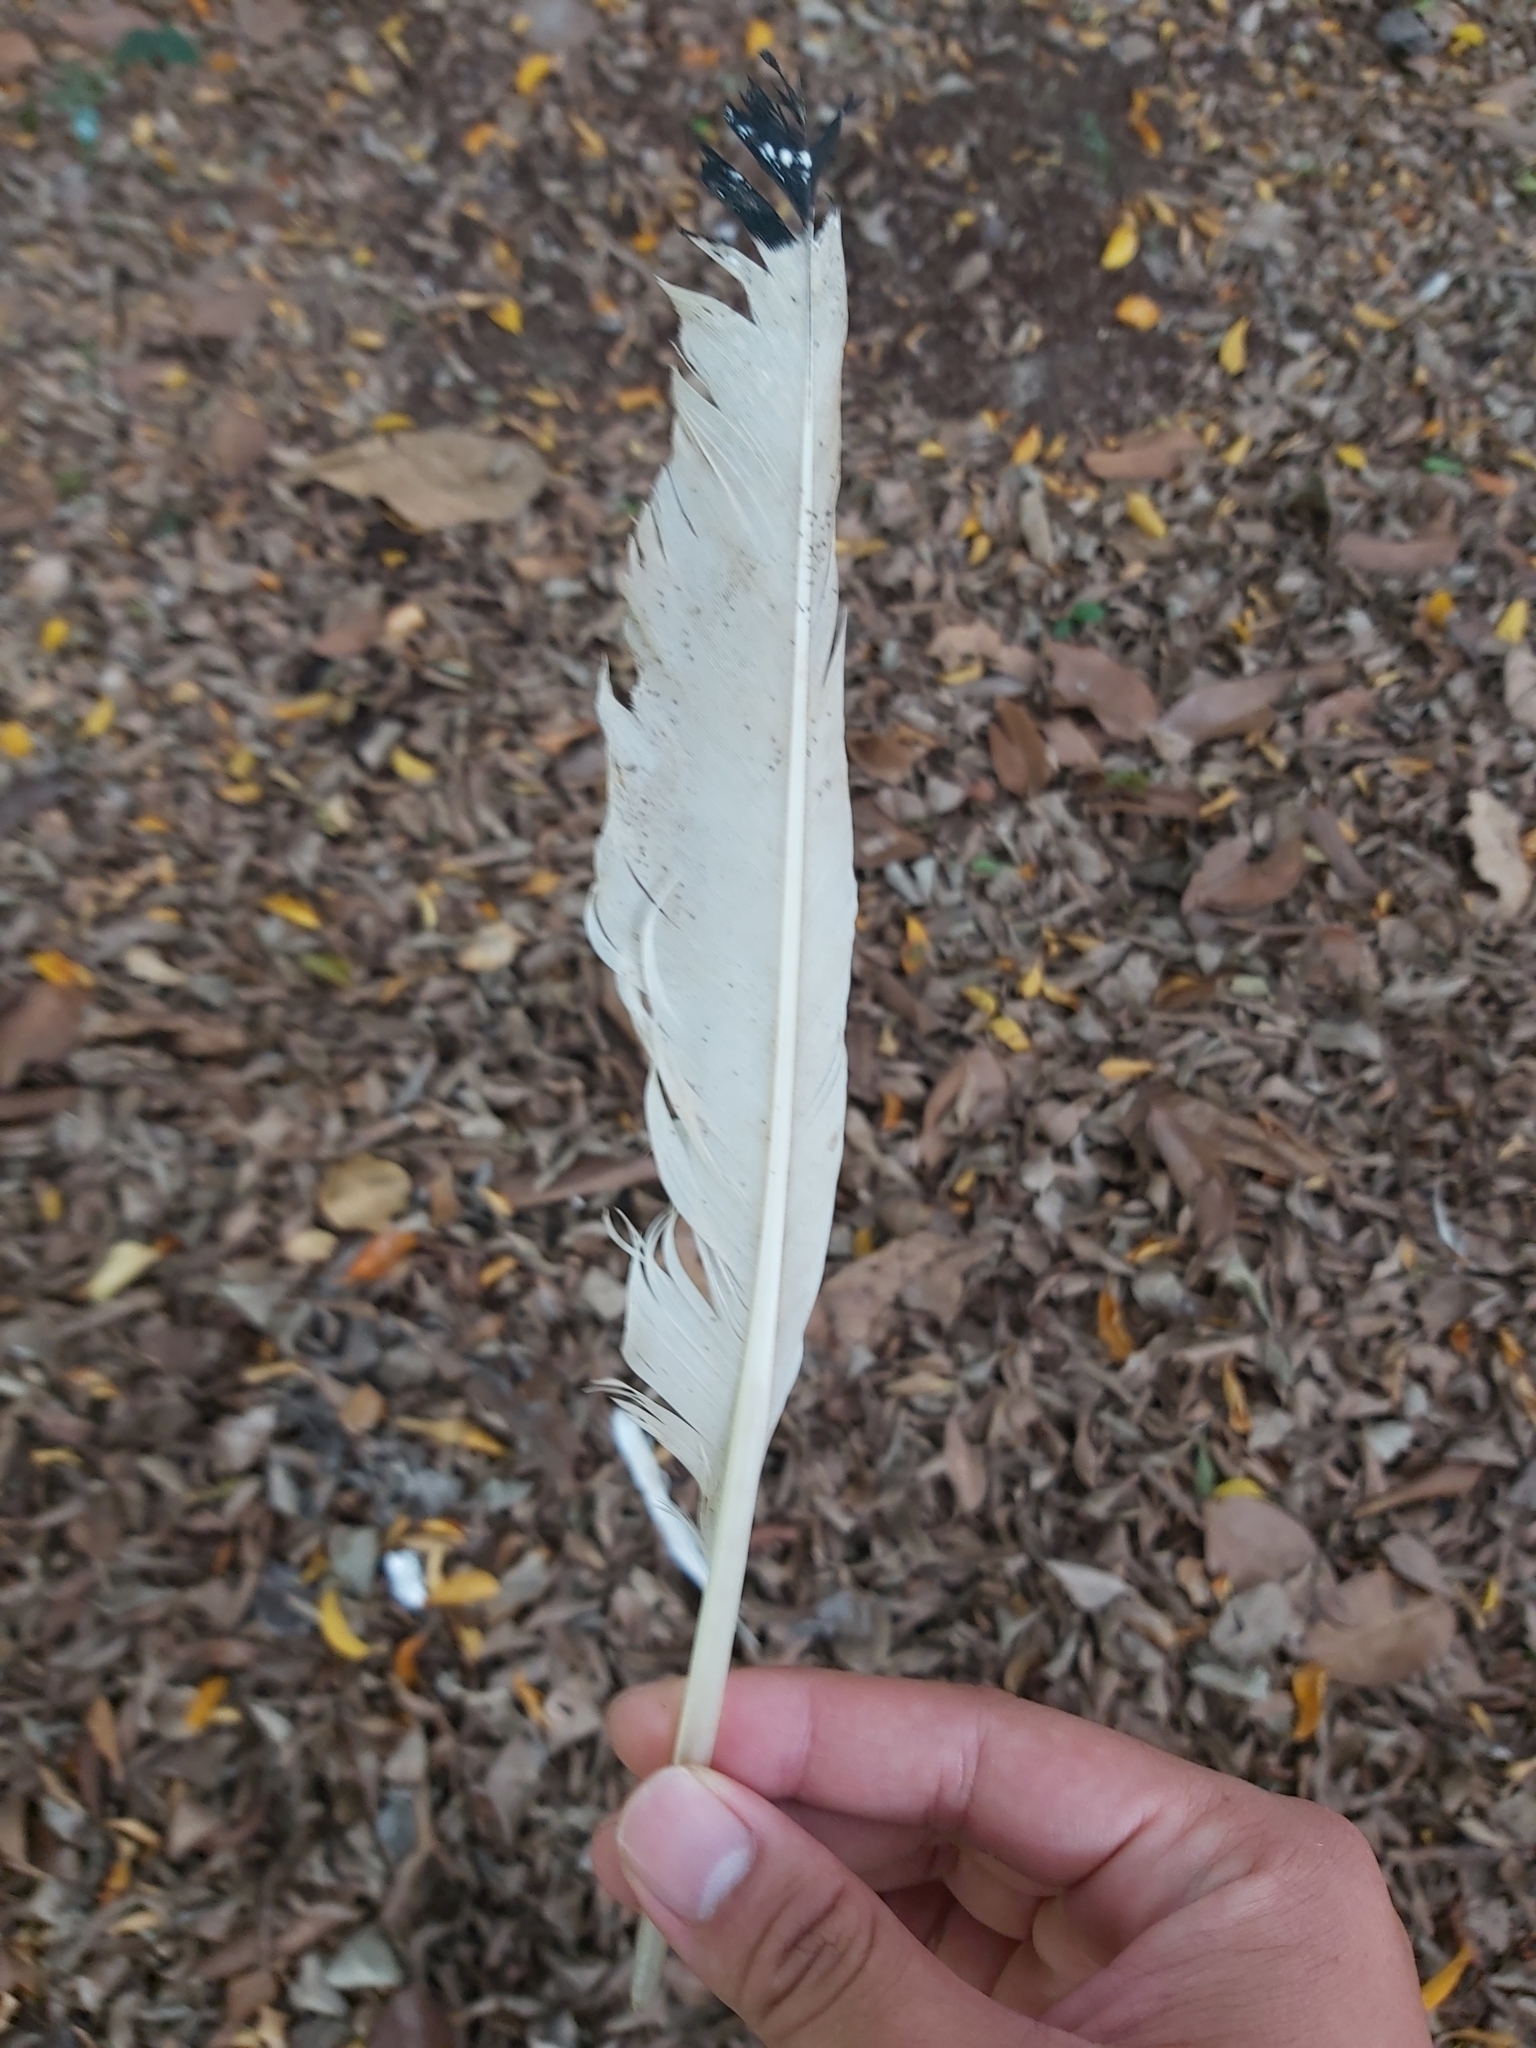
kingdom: Animalia
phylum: Chordata
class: Aves
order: Pelecaniformes
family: Threskiornithidae
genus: Threskiornis
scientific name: Threskiornis molucca
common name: Australian white ibis
